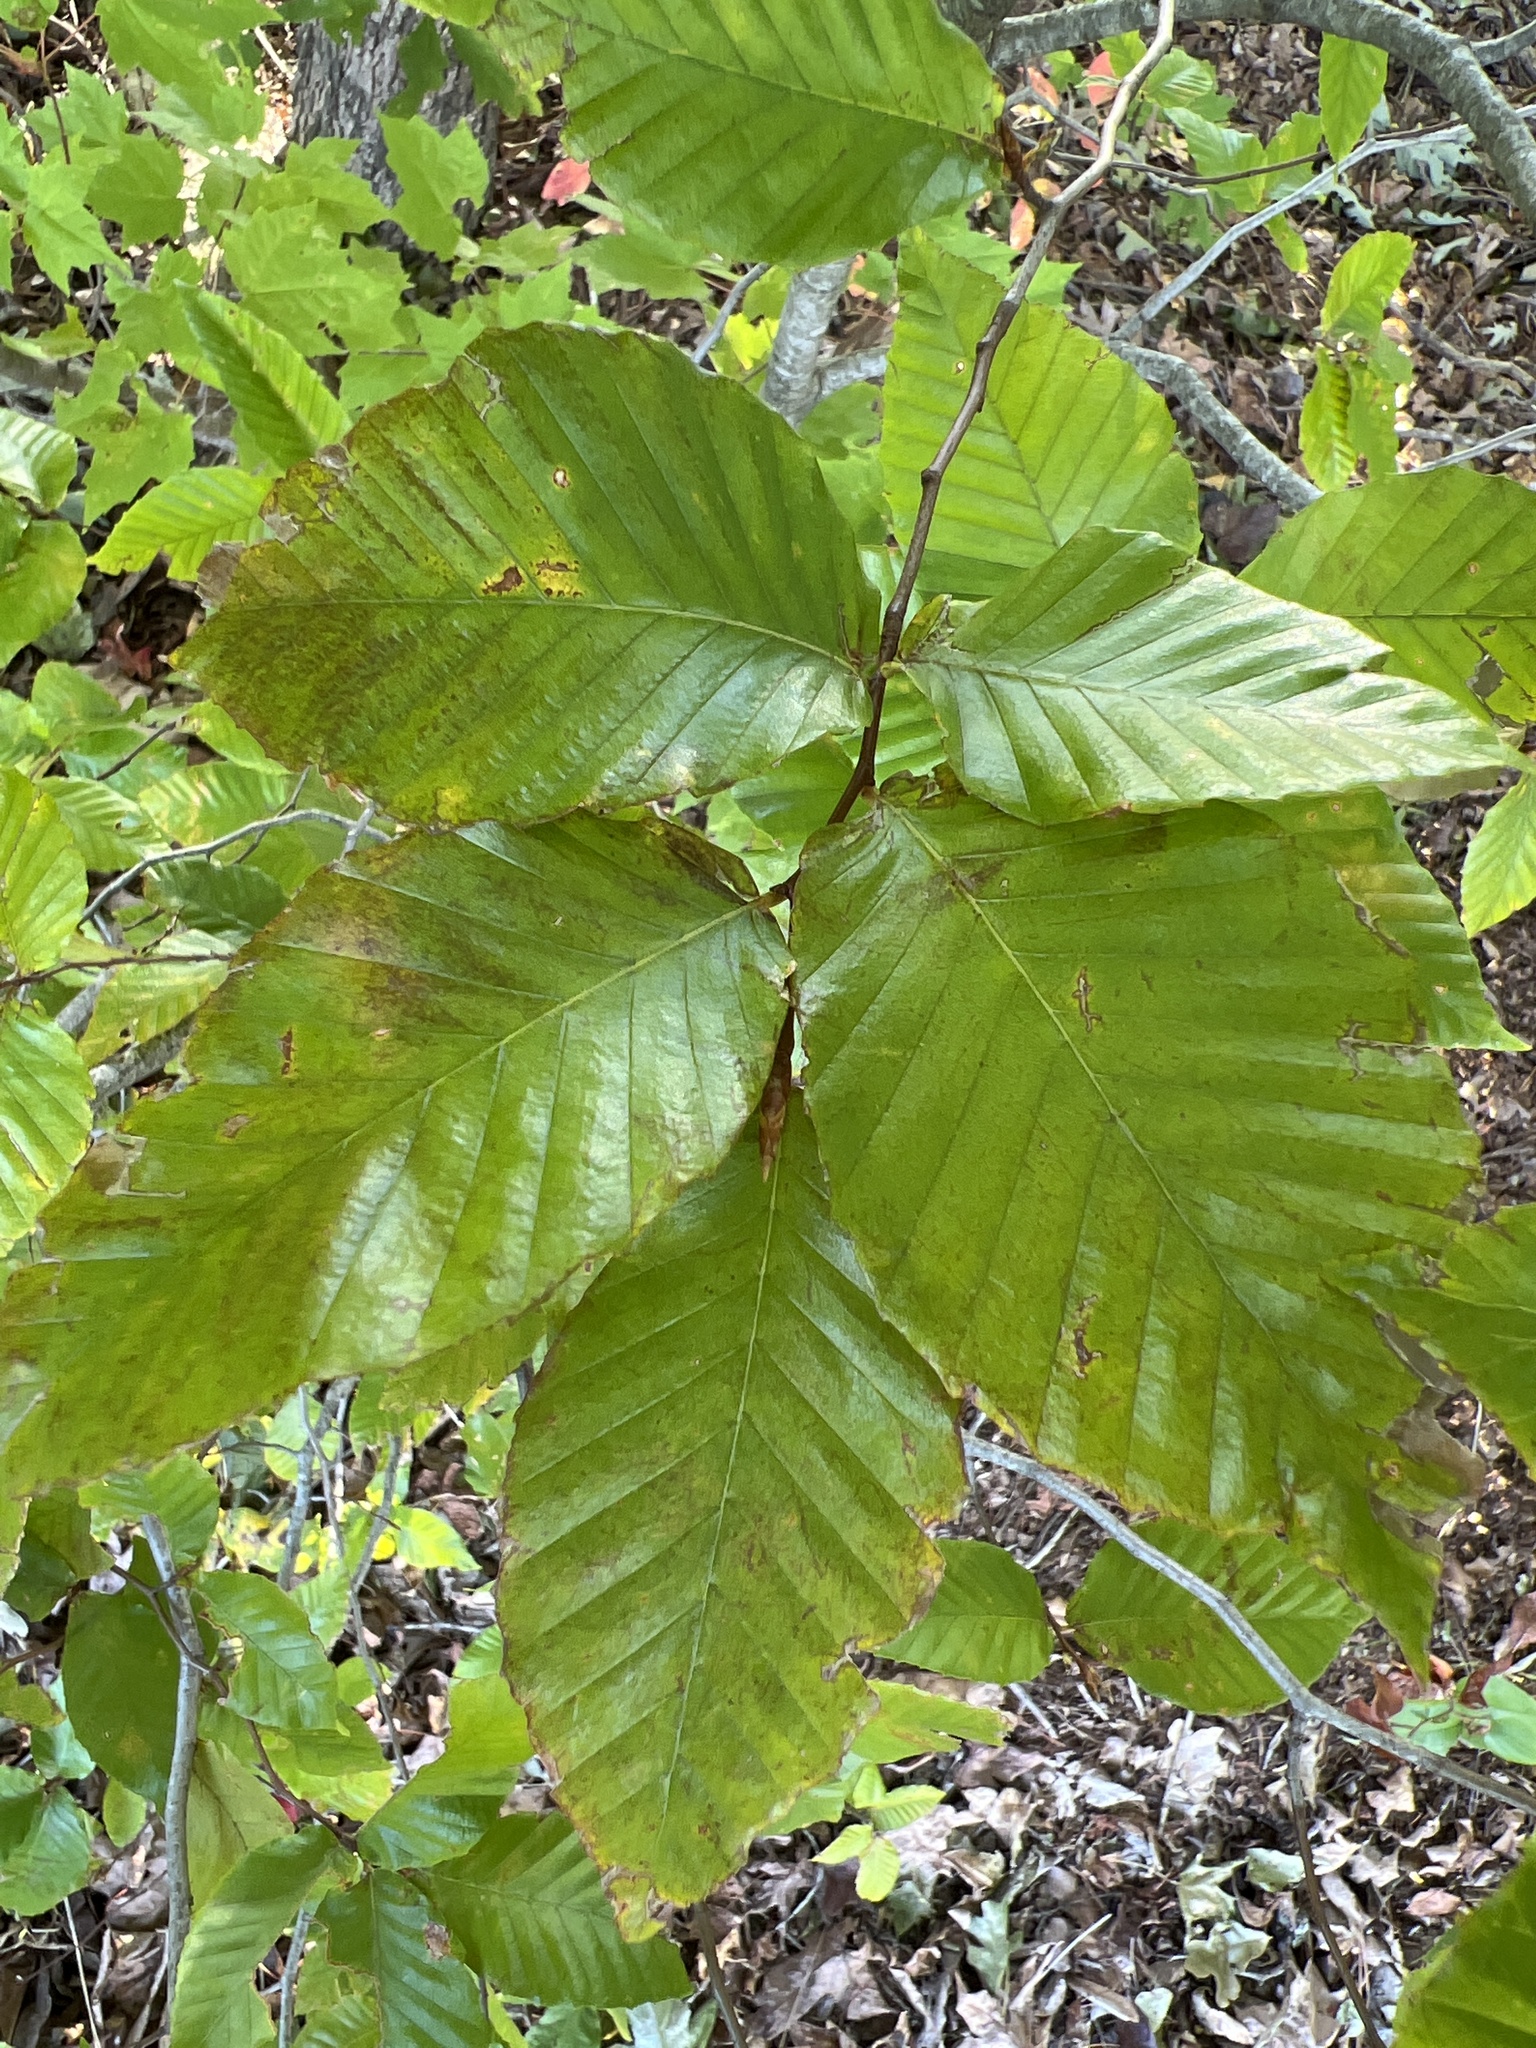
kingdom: Plantae
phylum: Tracheophyta
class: Magnoliopsida
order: Fagales
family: Fagaceae
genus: Fagus
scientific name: Fagus grandifolia
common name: American beech
